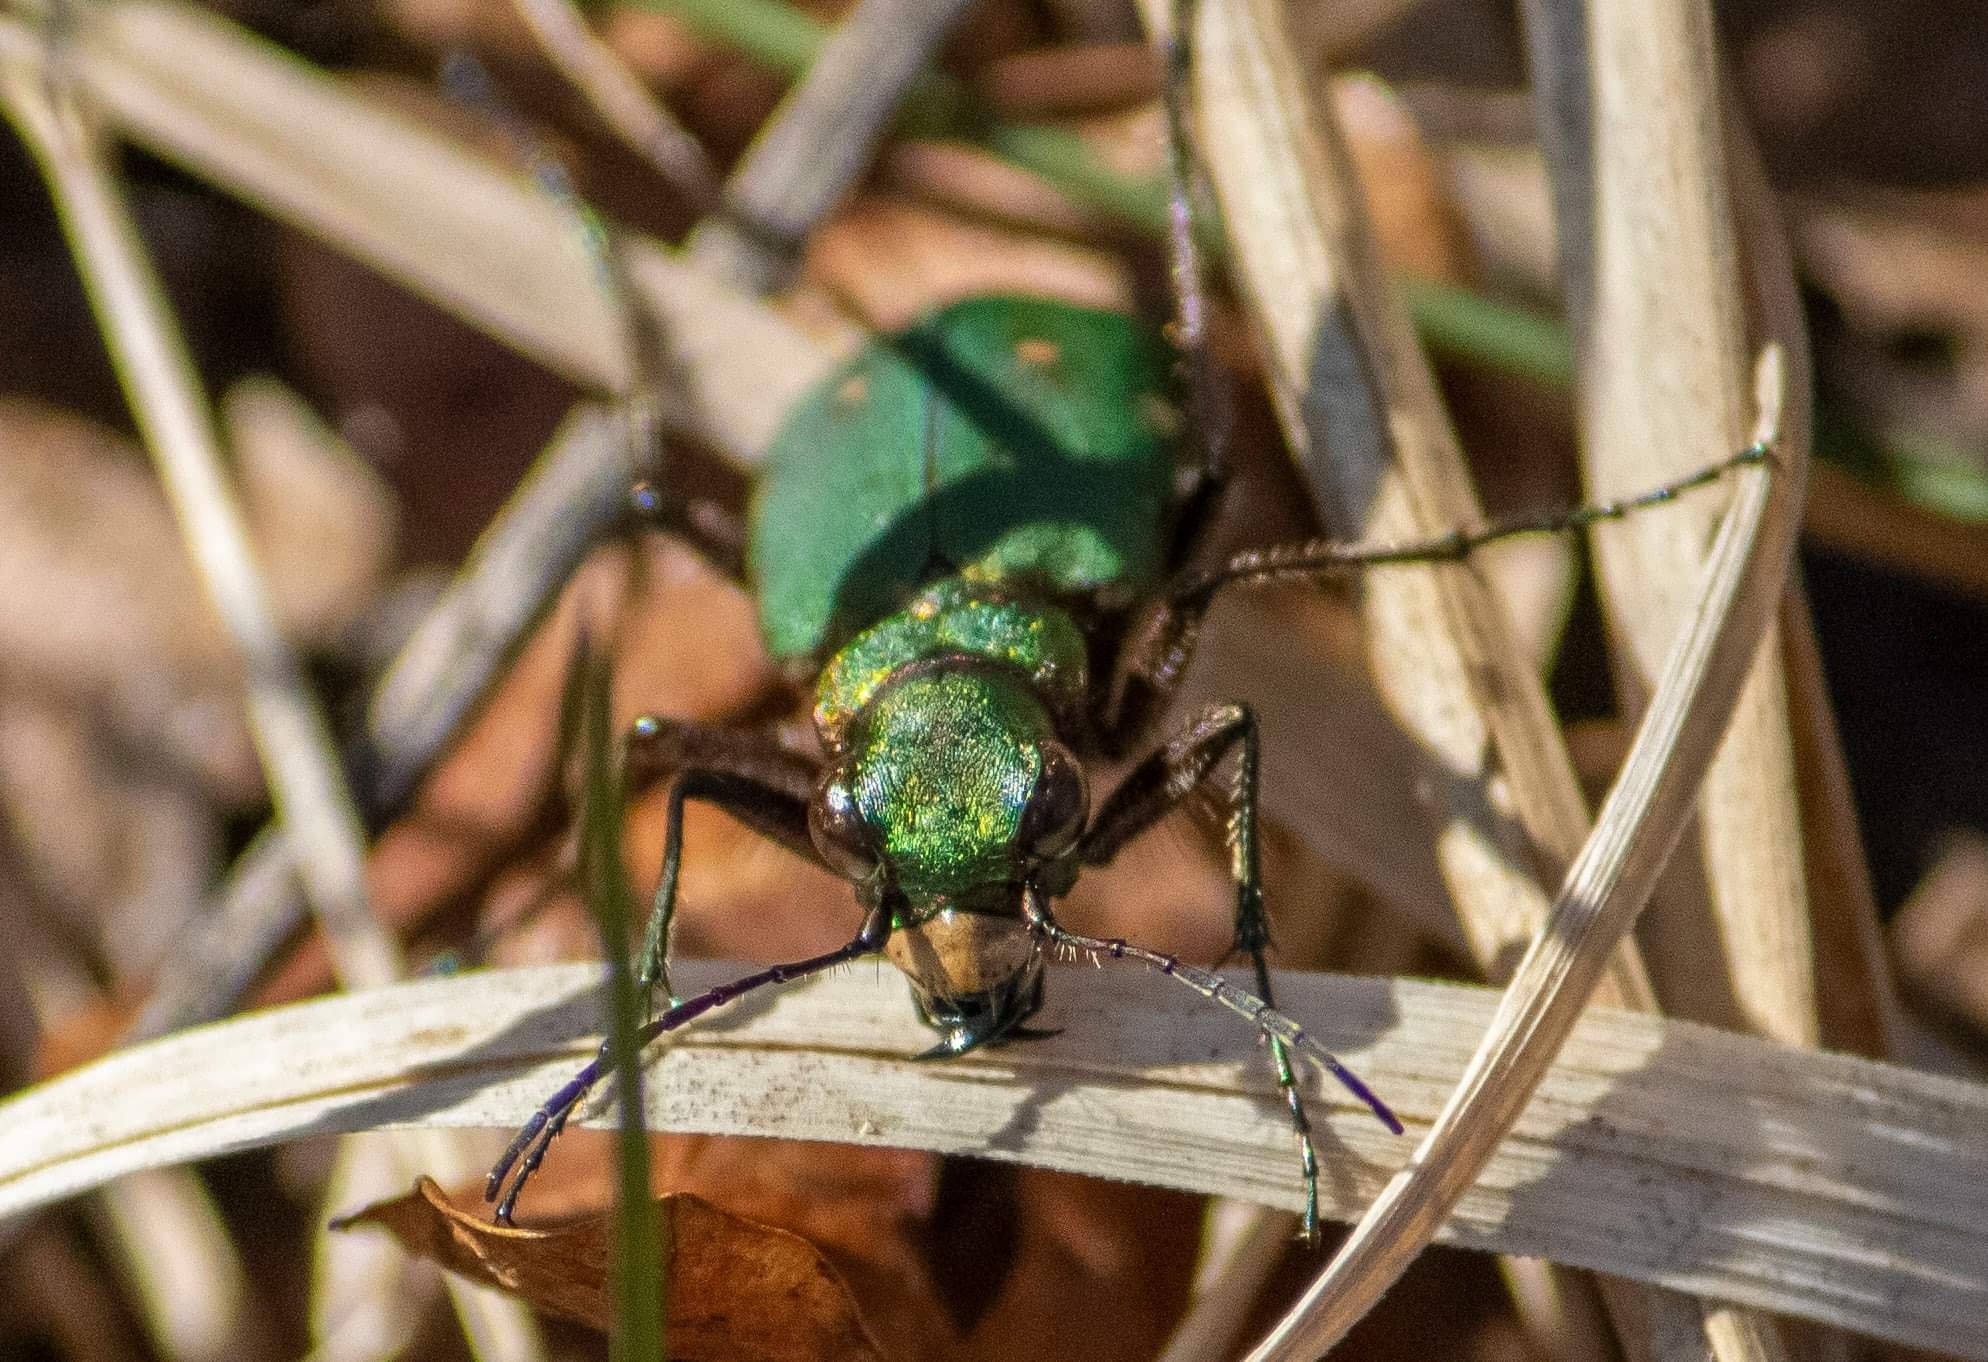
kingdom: Animalia
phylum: Arthropoda
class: Insecta
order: Coleoptera
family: Carabidae
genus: Cicindela
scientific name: Cicindela campestris
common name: Common tiger beetle
